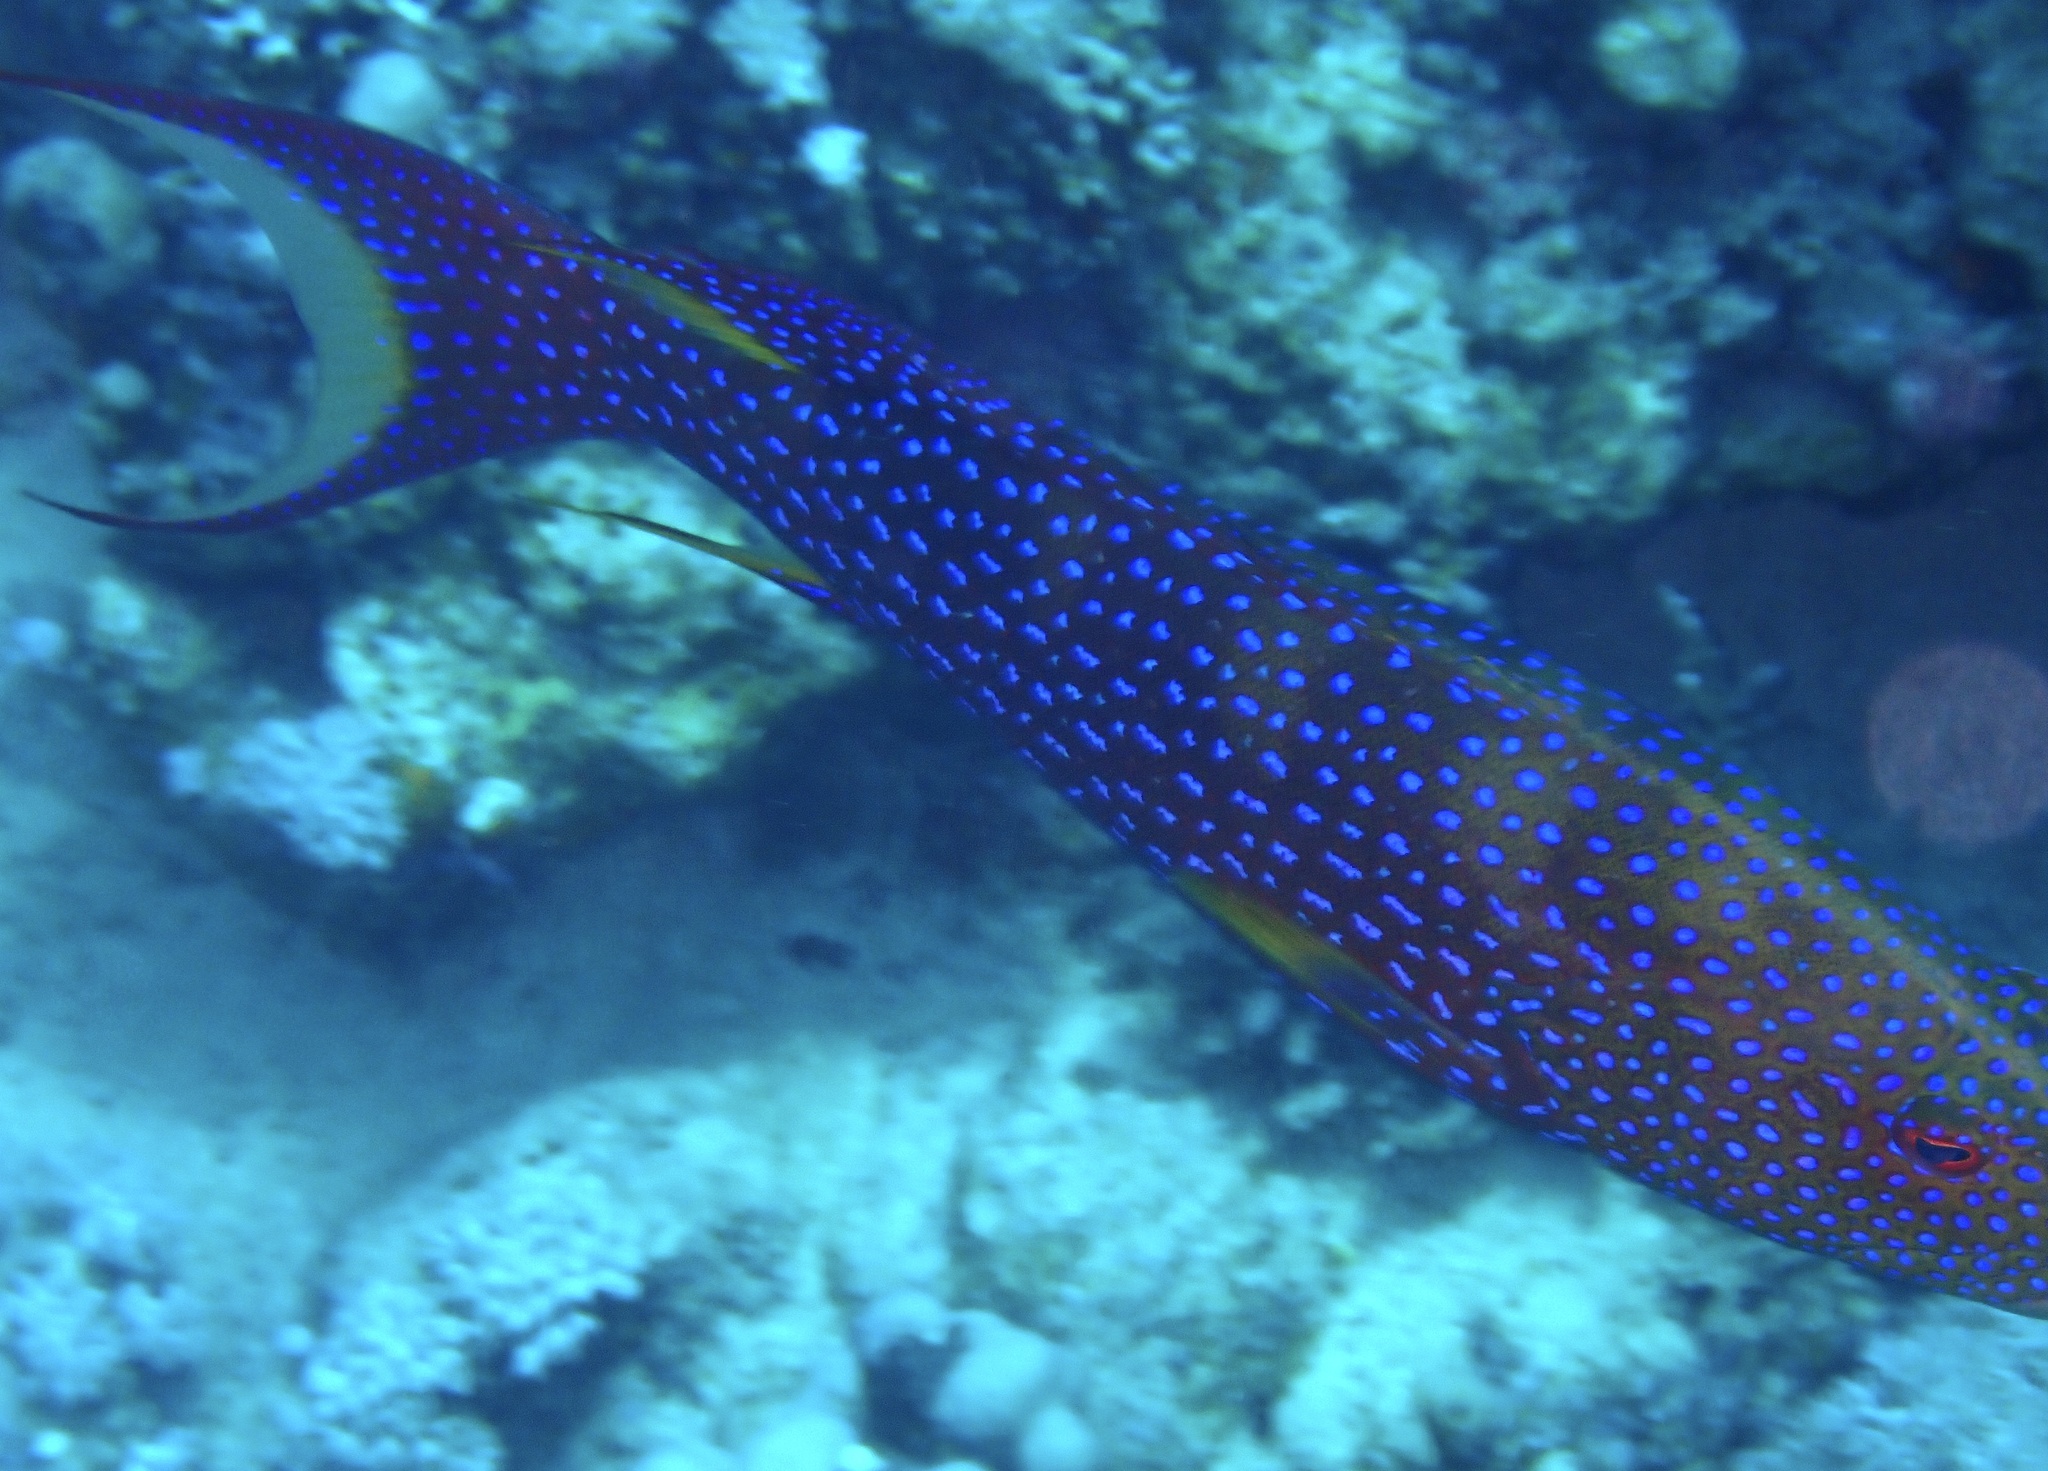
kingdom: Animalia
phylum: Chordata
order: Perciformes
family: Serranidae
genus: Variola
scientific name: Variola louti
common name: Yellow-edged lyretail
